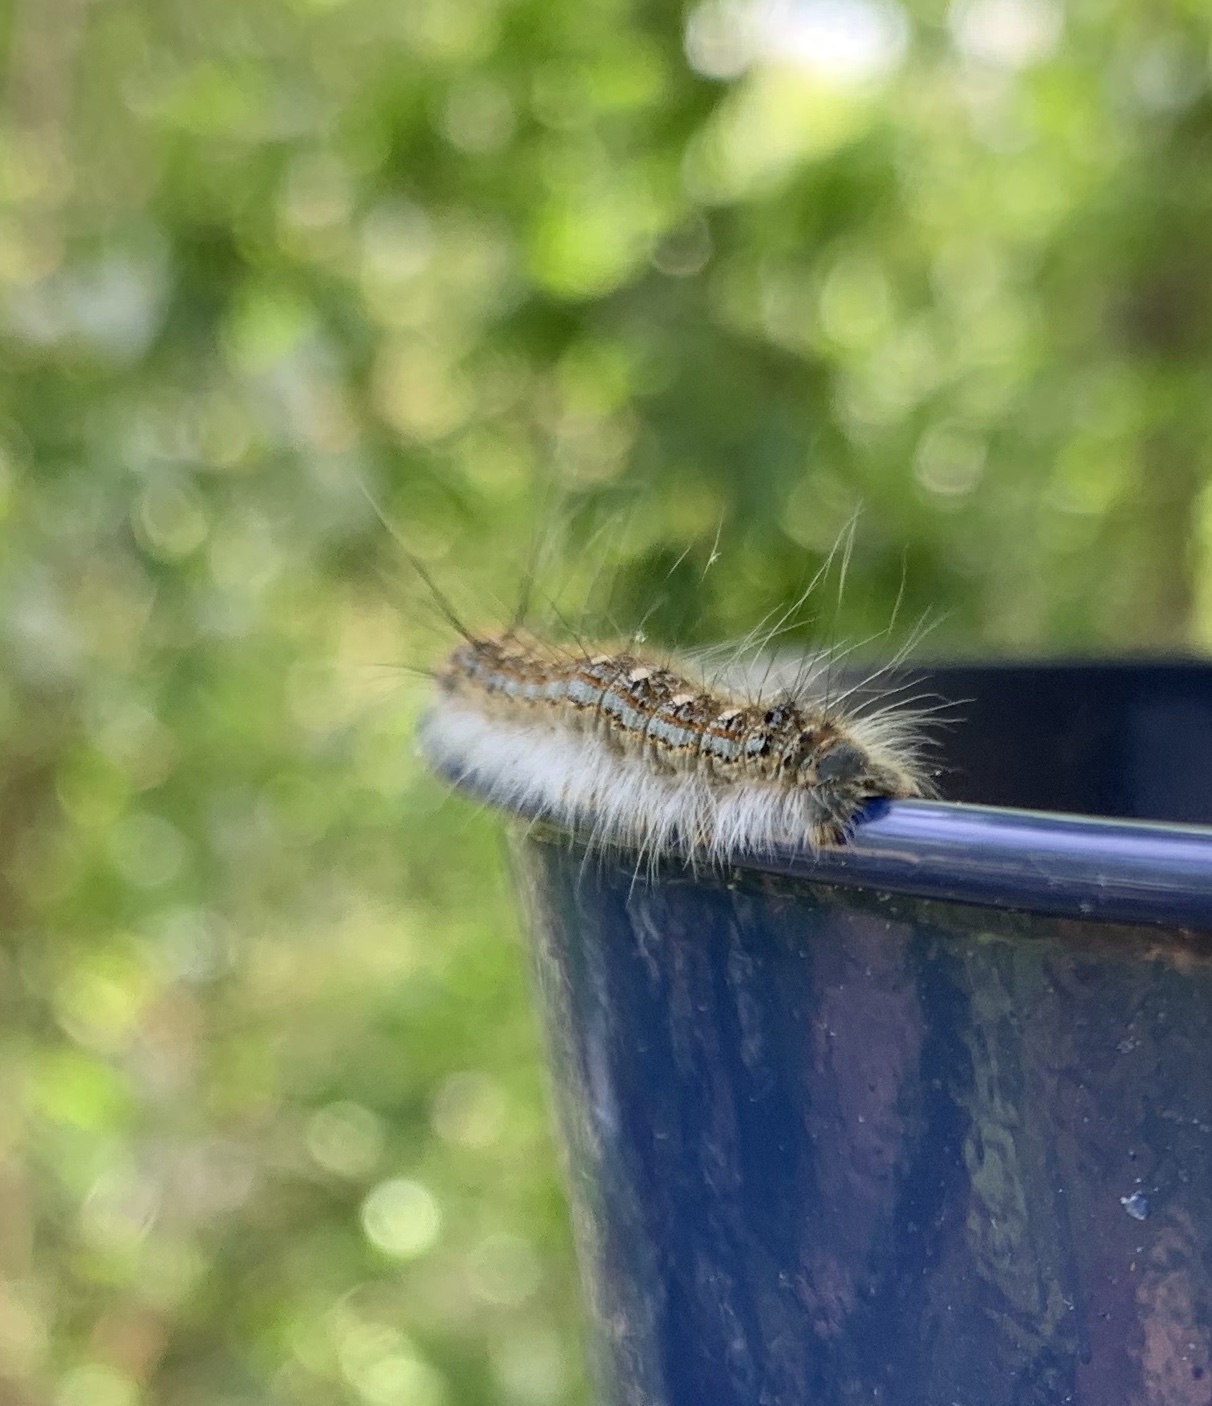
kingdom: Animalia
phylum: Arthropoda
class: Insecta
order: Lepidoptera
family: Lasiocampidae
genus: Malacosoma
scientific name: Malacosoma disstria
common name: Forest tent caterpillar
